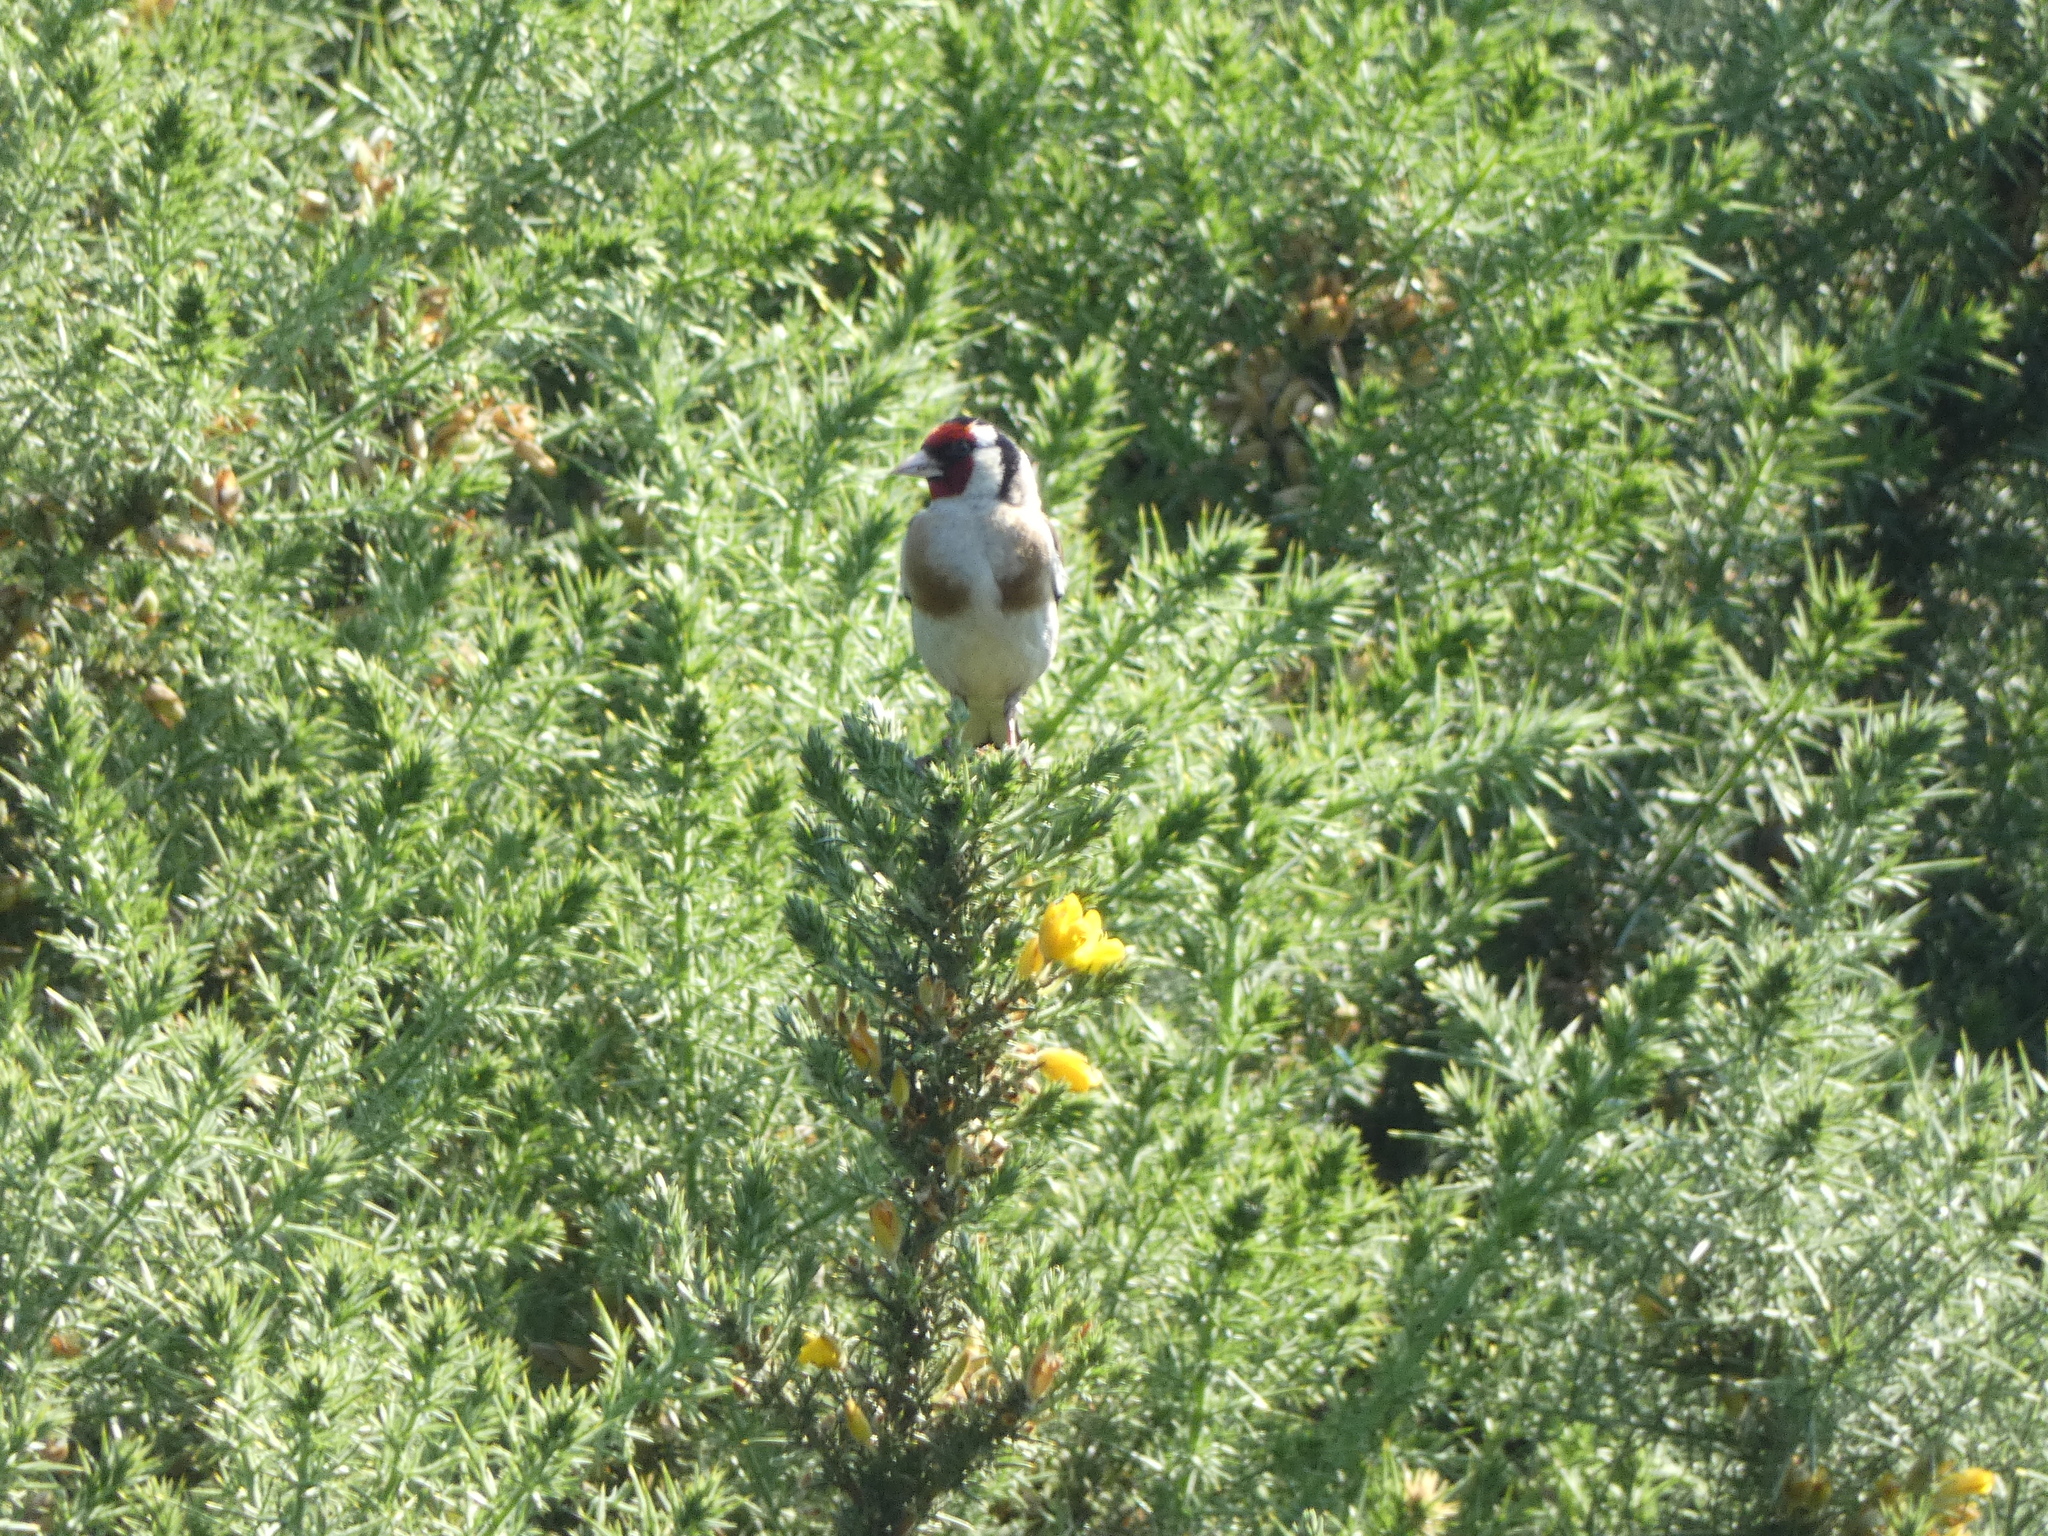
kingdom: Animalia
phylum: Chordata
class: Aves
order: Passeriformes
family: Fringillidae
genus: Carduelis
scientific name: Carduelis carduelis
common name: European goldfinch
